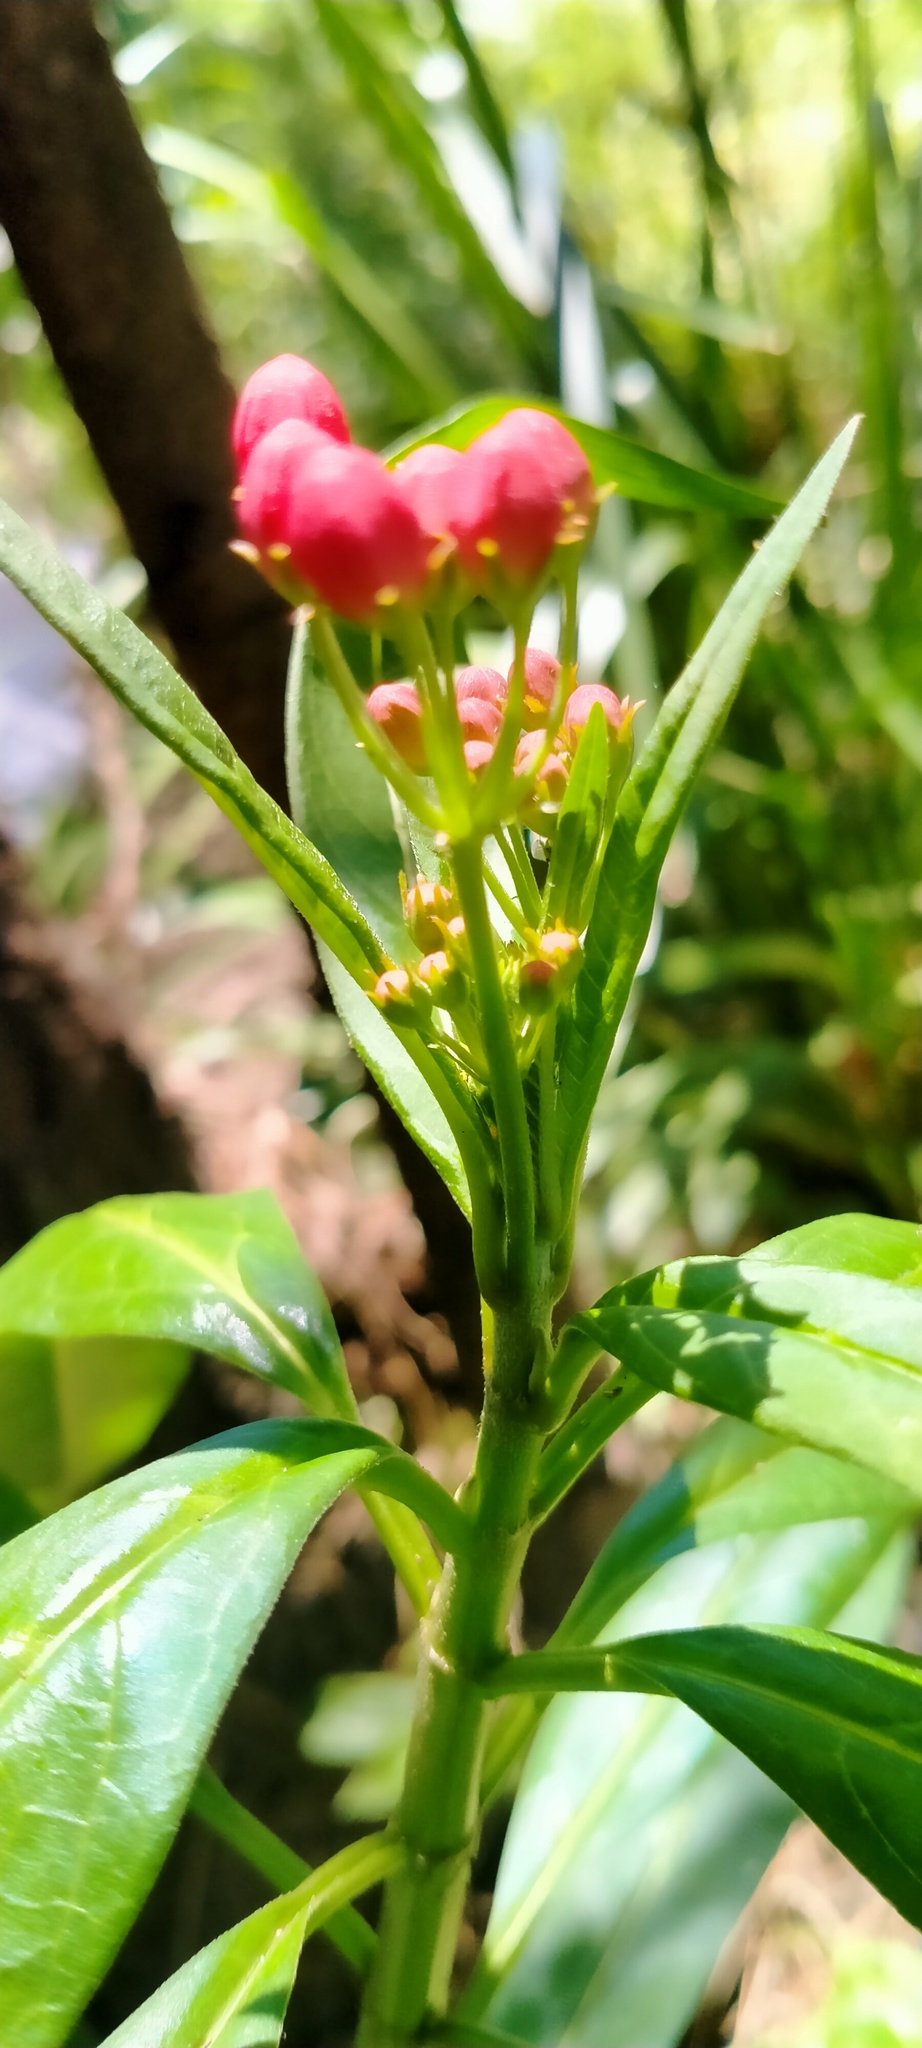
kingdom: Plantae
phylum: Tracheophyta
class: Magnoliopsida
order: Gentianales
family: Apocynaceae
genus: Asclepias
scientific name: Asclepias curassavica
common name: Bloodflower
